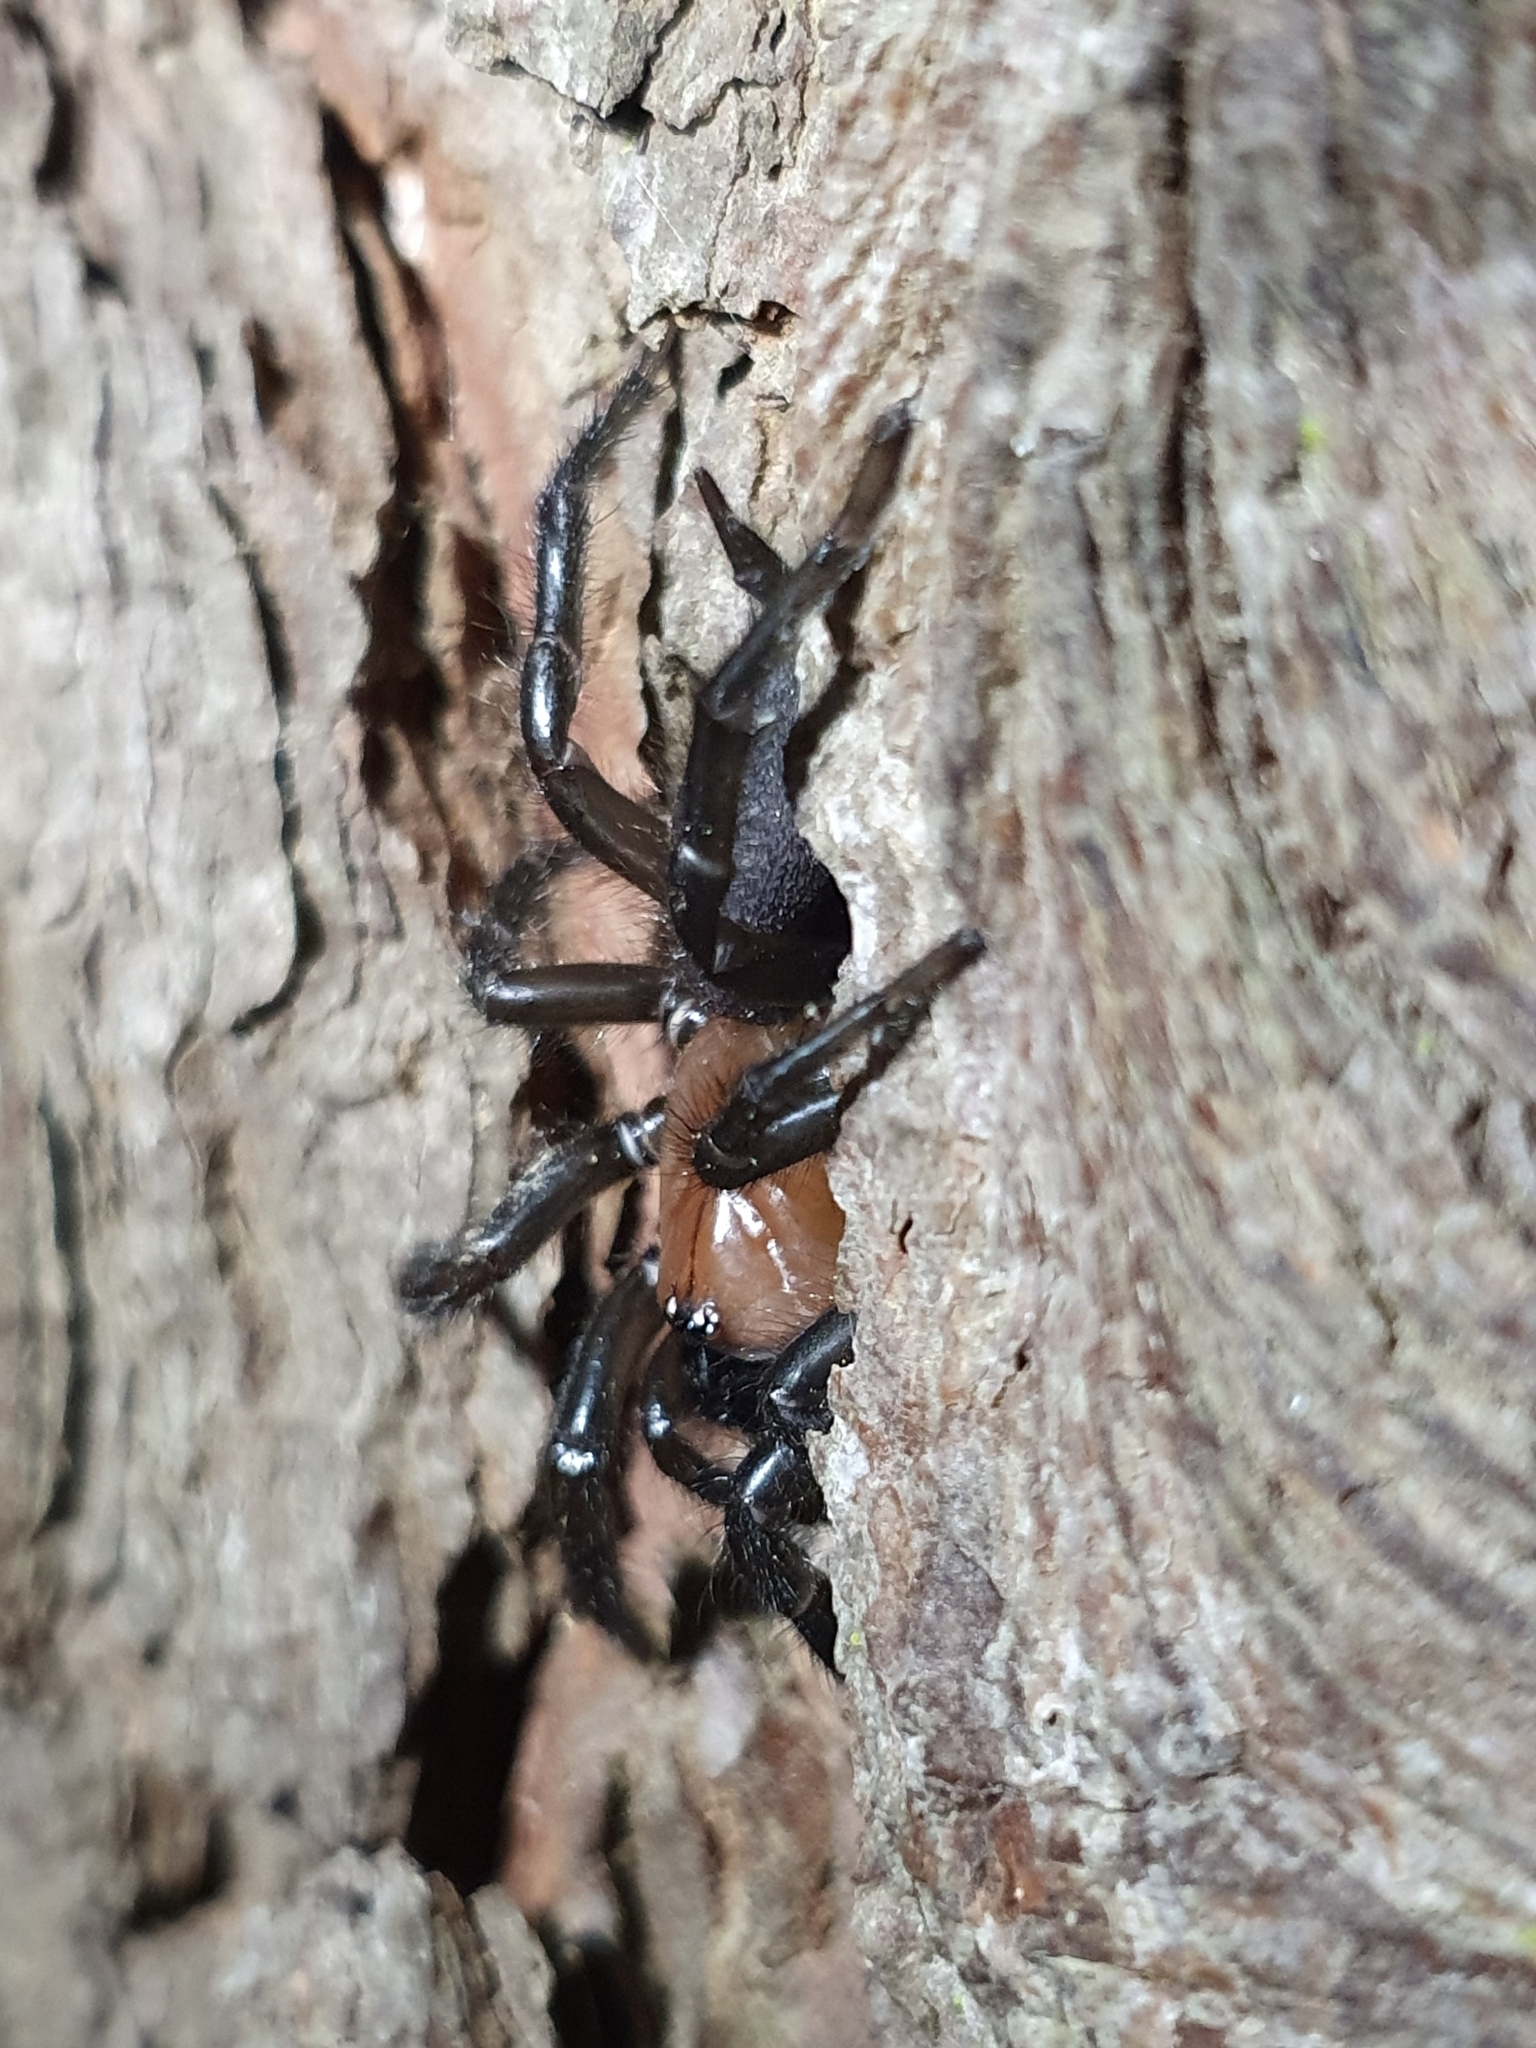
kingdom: Animalia
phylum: Arthropoda
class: Arachnida
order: Araneae
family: Porrhothelidae
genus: Porrhothele
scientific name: Porrhothele antipodiana
